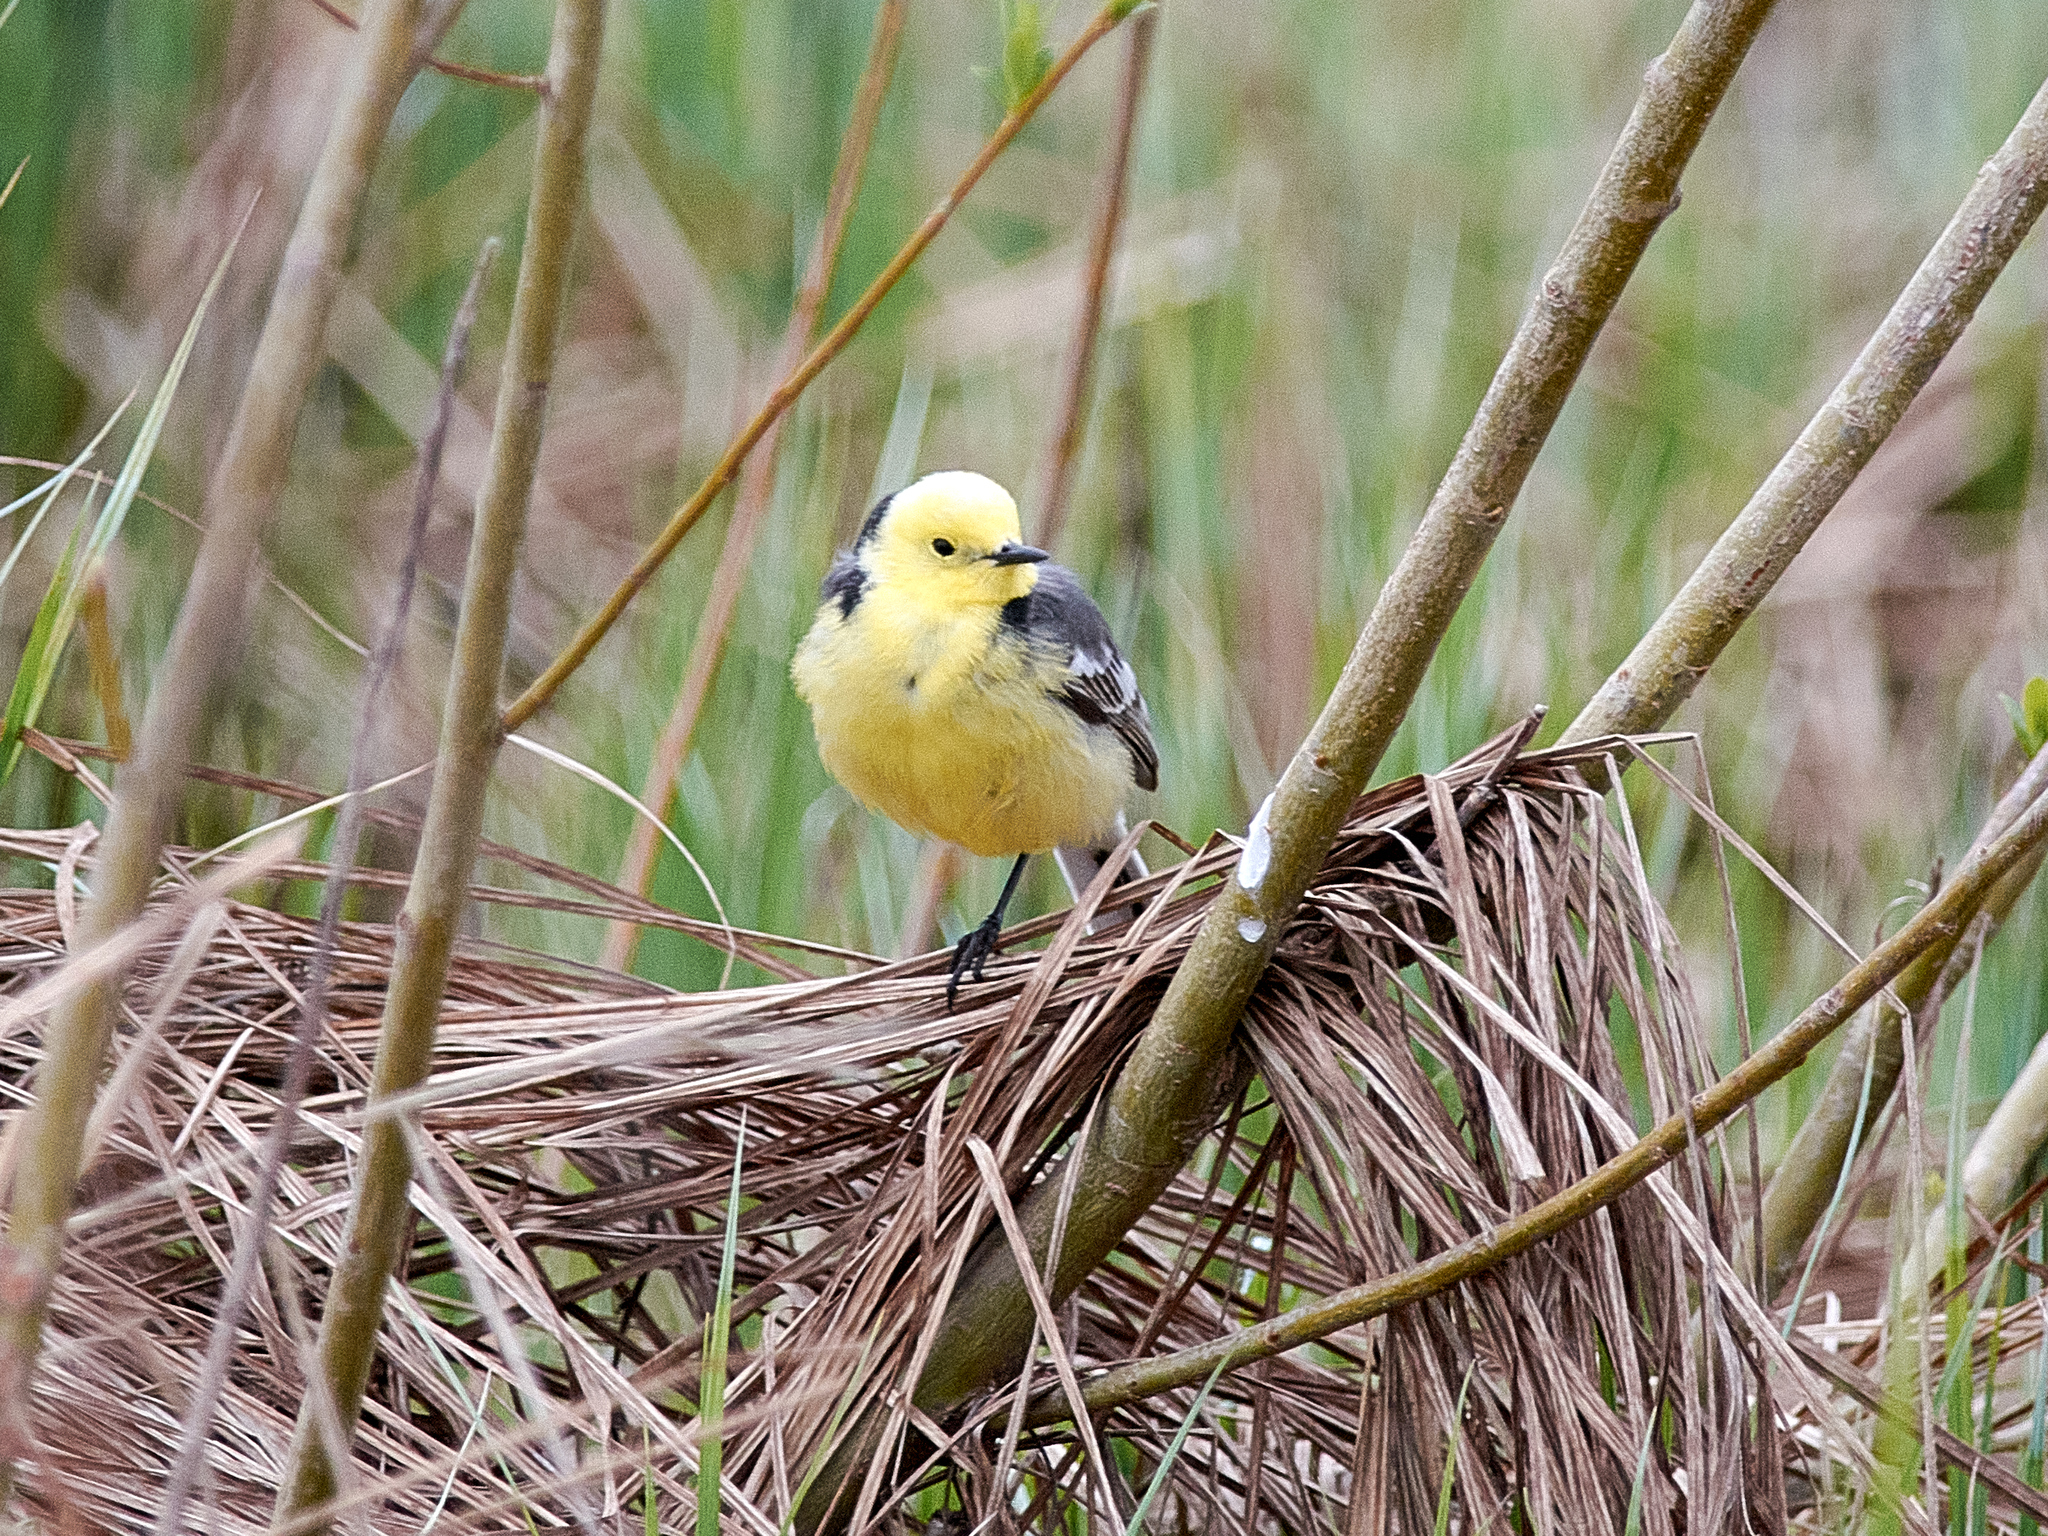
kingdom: Animalia
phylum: Chordata
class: Aves
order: Passeriformes
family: Motacillidae
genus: Motacilla
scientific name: Motacilla citreola
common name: Citrine wagtail
